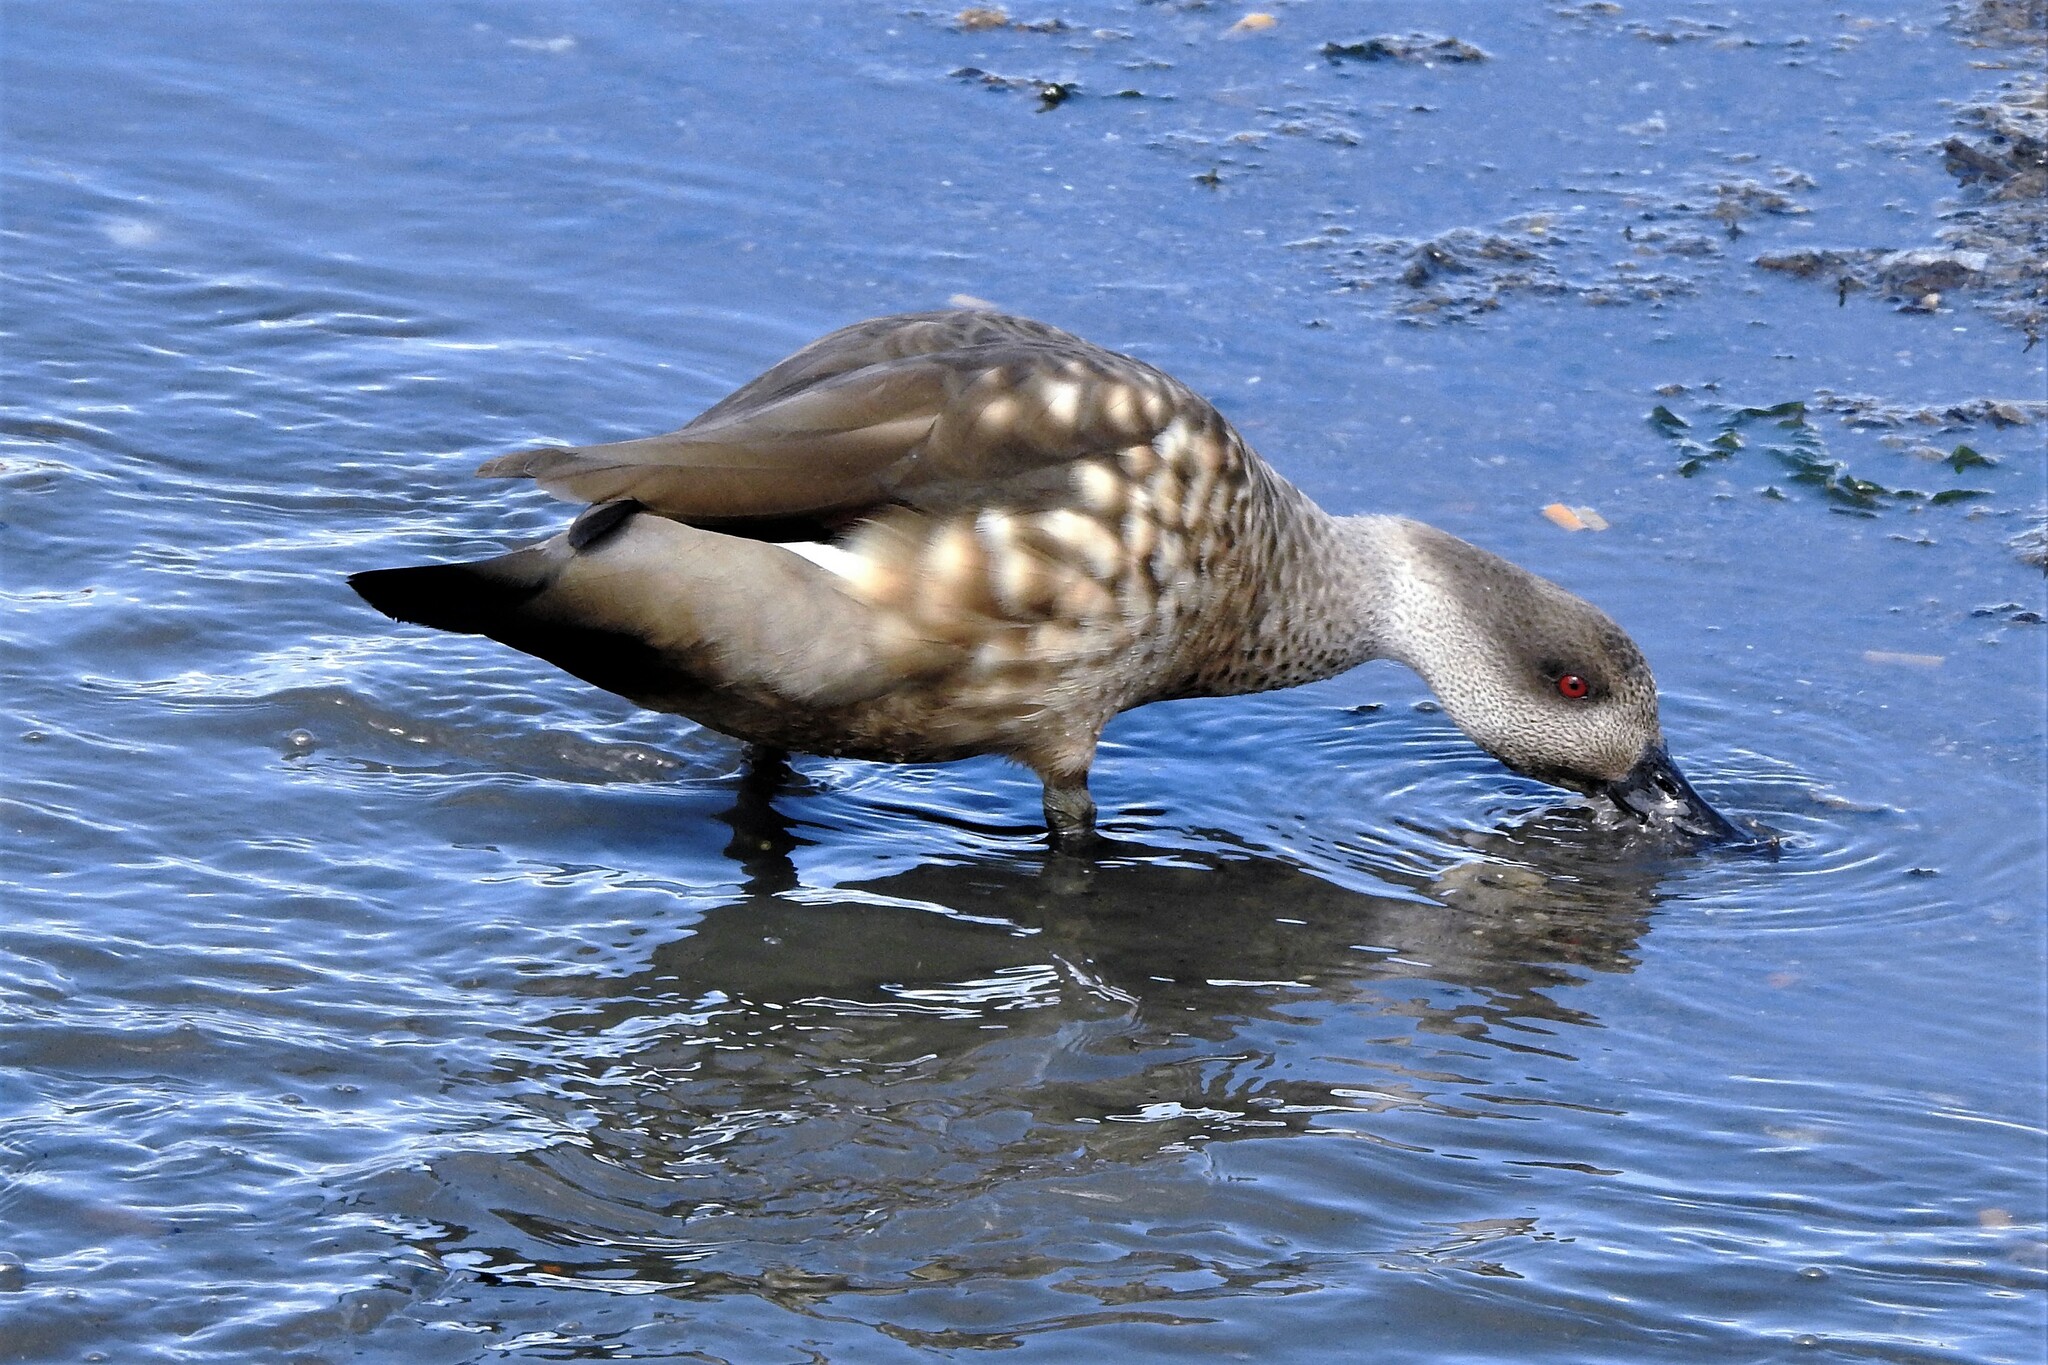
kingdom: Animalia
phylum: Chordata
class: Aves
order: Anseriformes
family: Anatidae
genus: Lophonetta
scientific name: Lophonetta specularioides
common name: Crested duck
